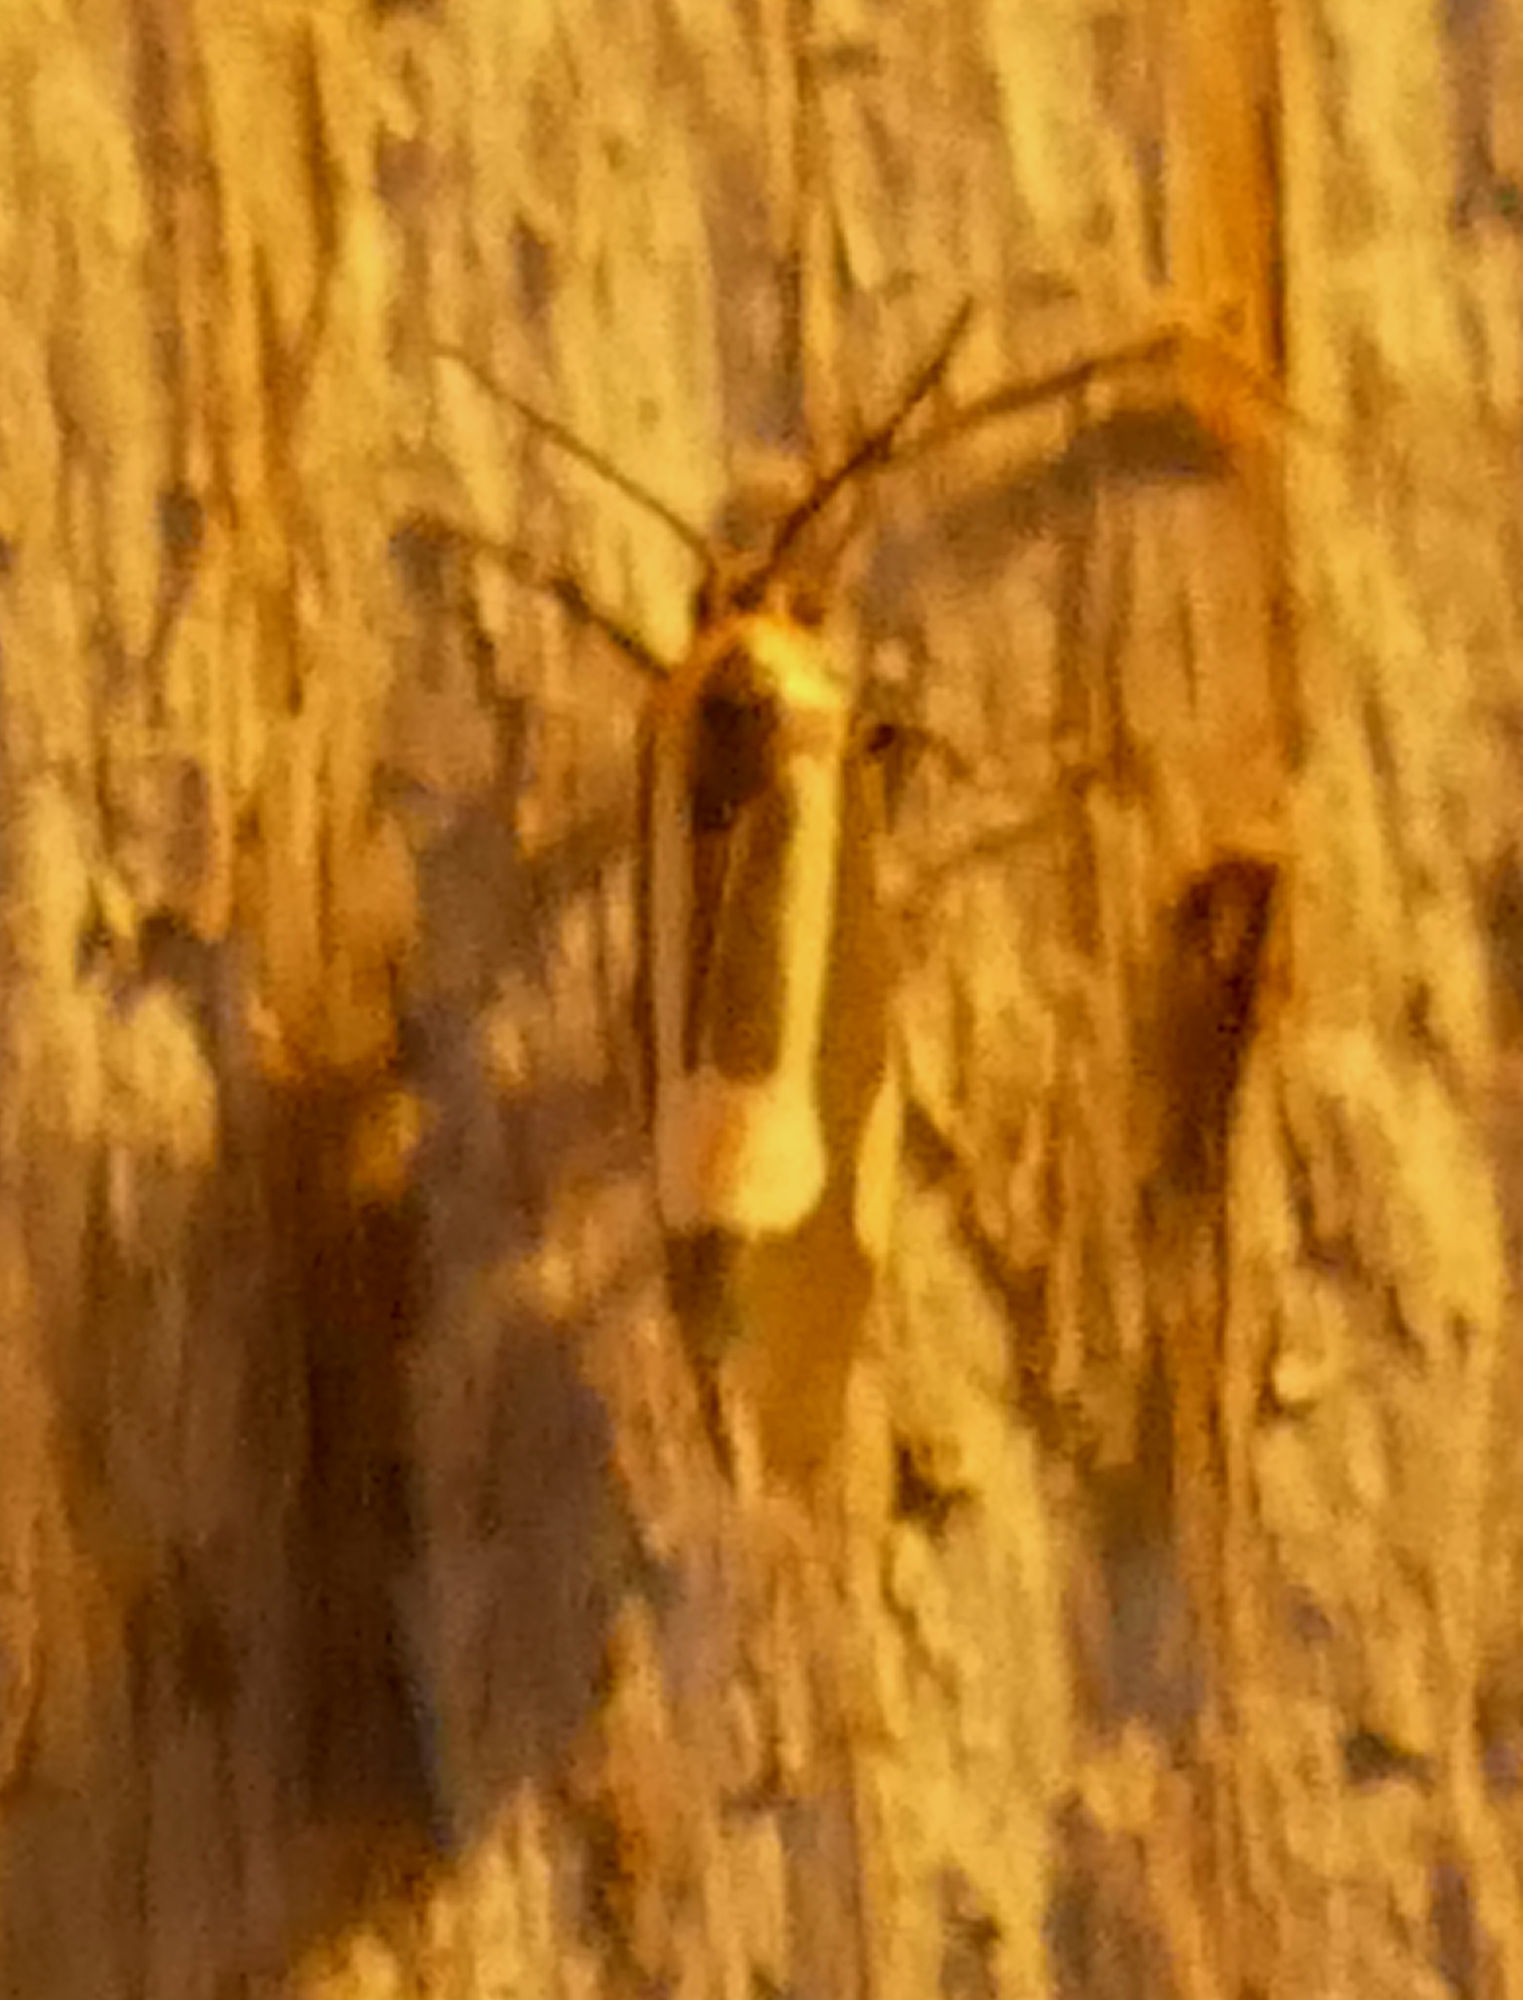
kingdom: Animalia
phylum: Arthropoda
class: Insecta
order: Lepidoptera
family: Erebidae
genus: Cisthene
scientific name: Cisthene packardii
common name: Packard's lichen moth
